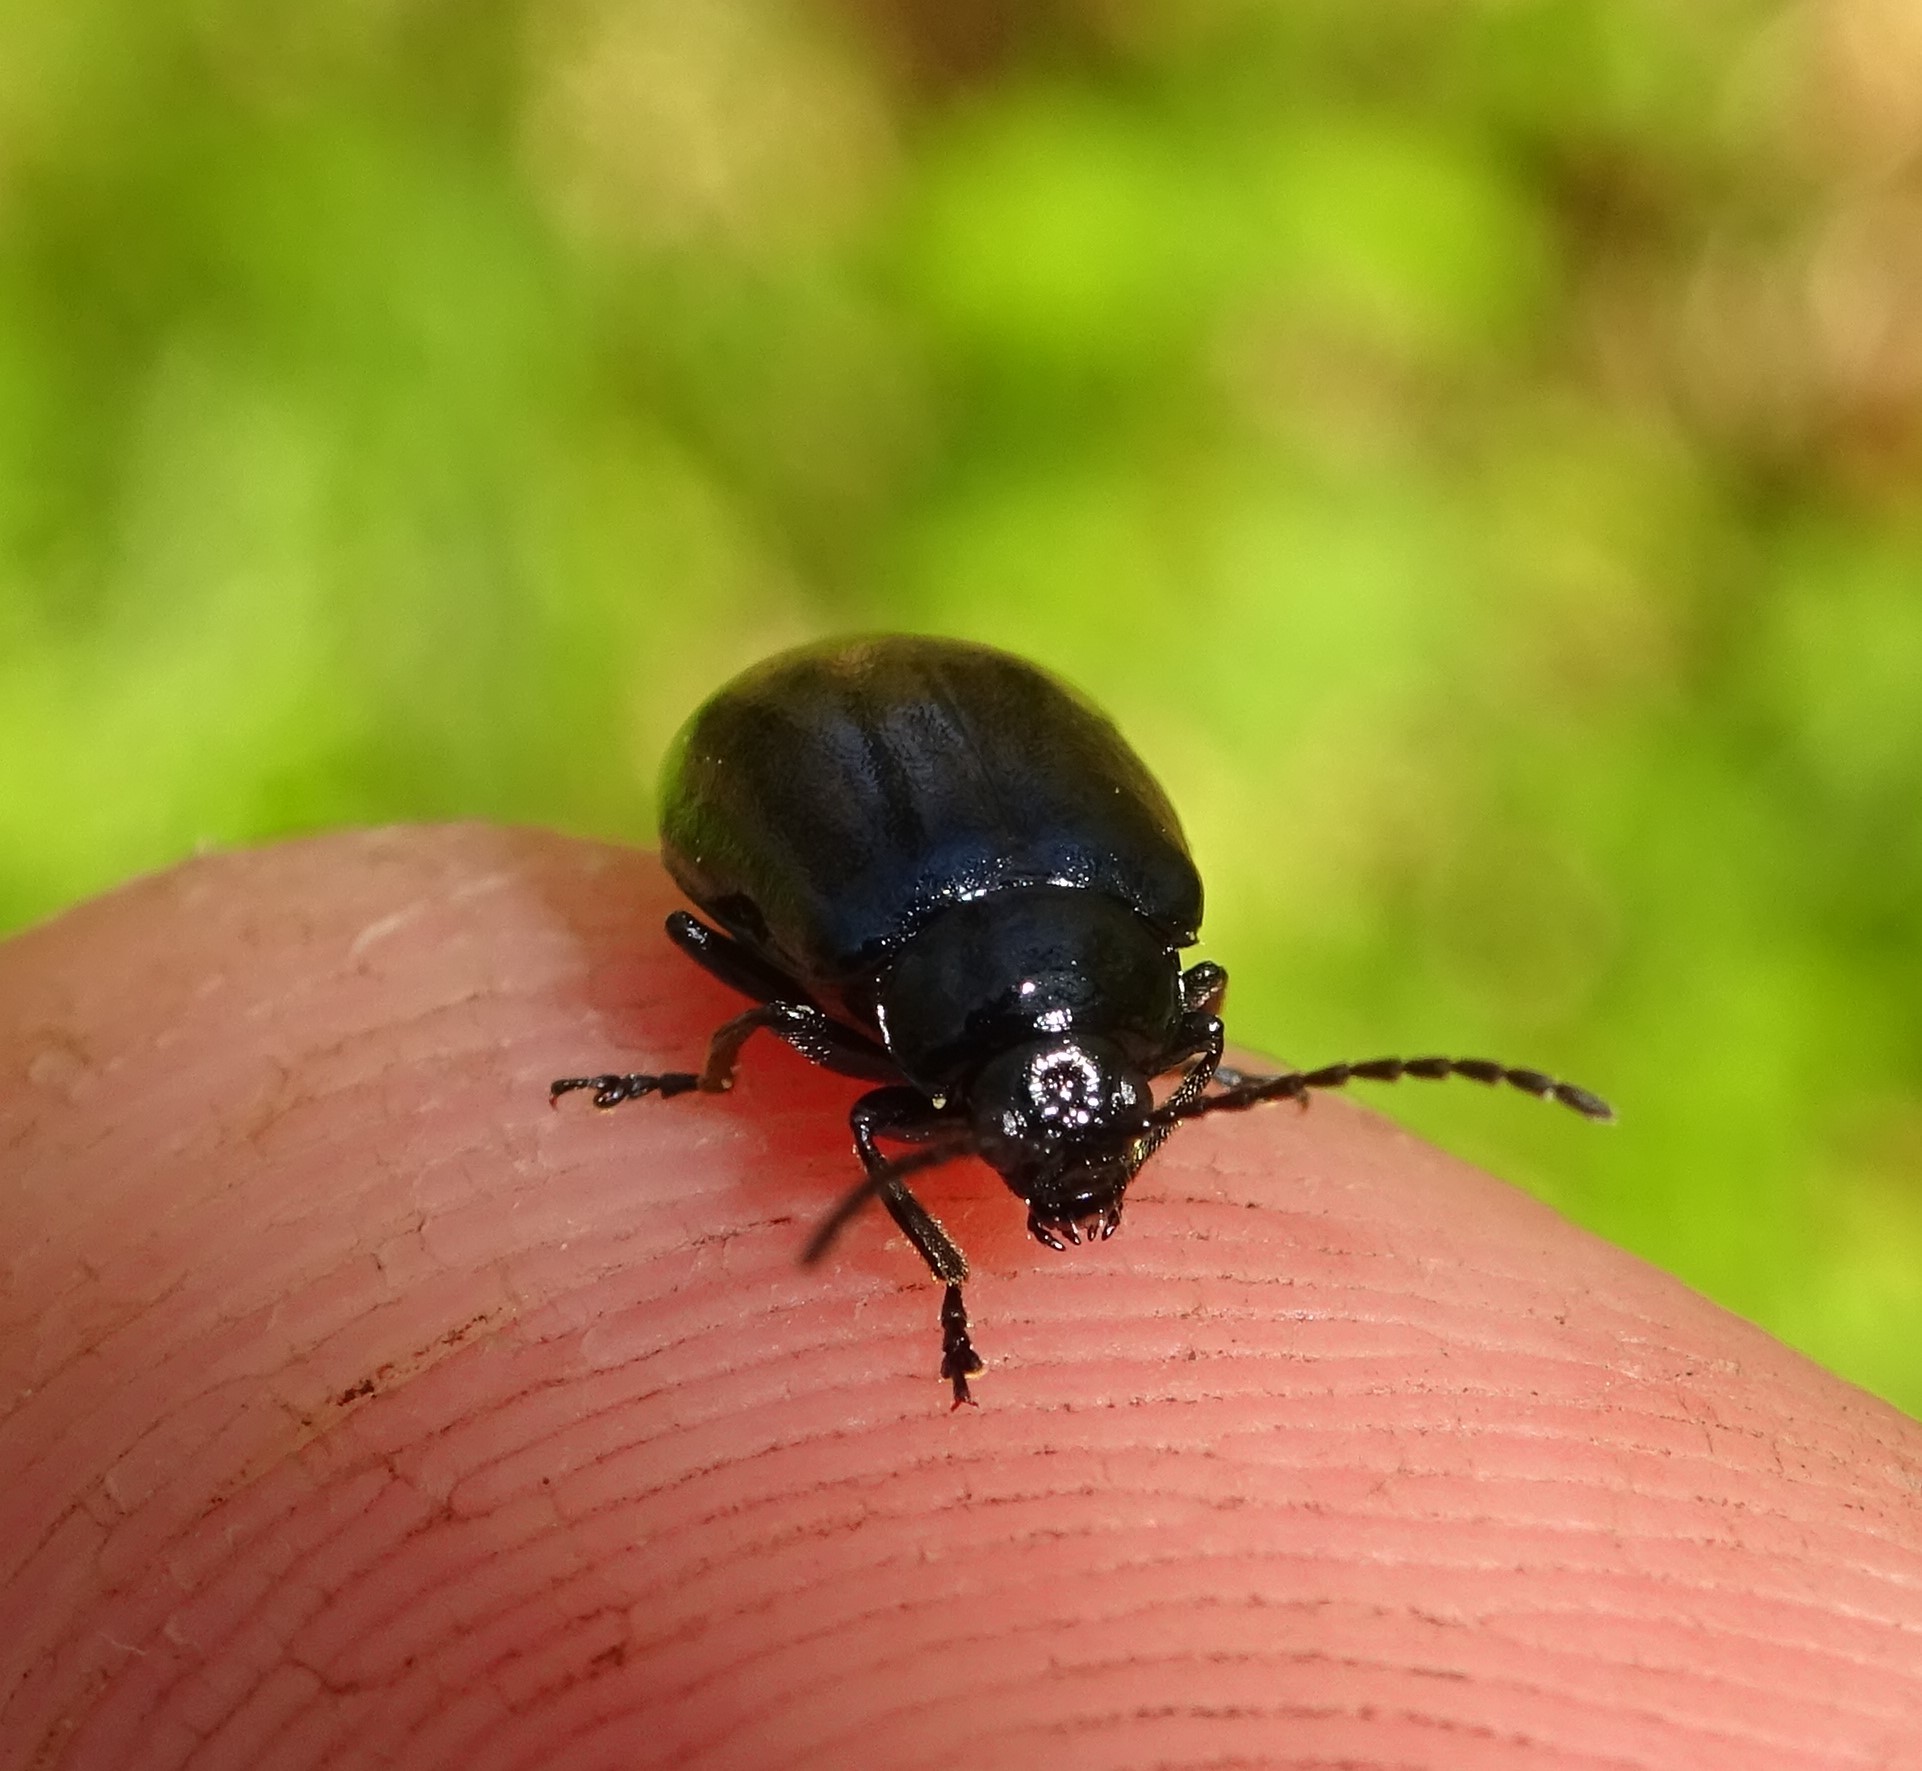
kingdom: Animalia
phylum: Arthropoda
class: Insecta
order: Coleoptera
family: Chrysomelidae
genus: Agelastica
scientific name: Agelastica alni
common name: Alder leaf beetle
